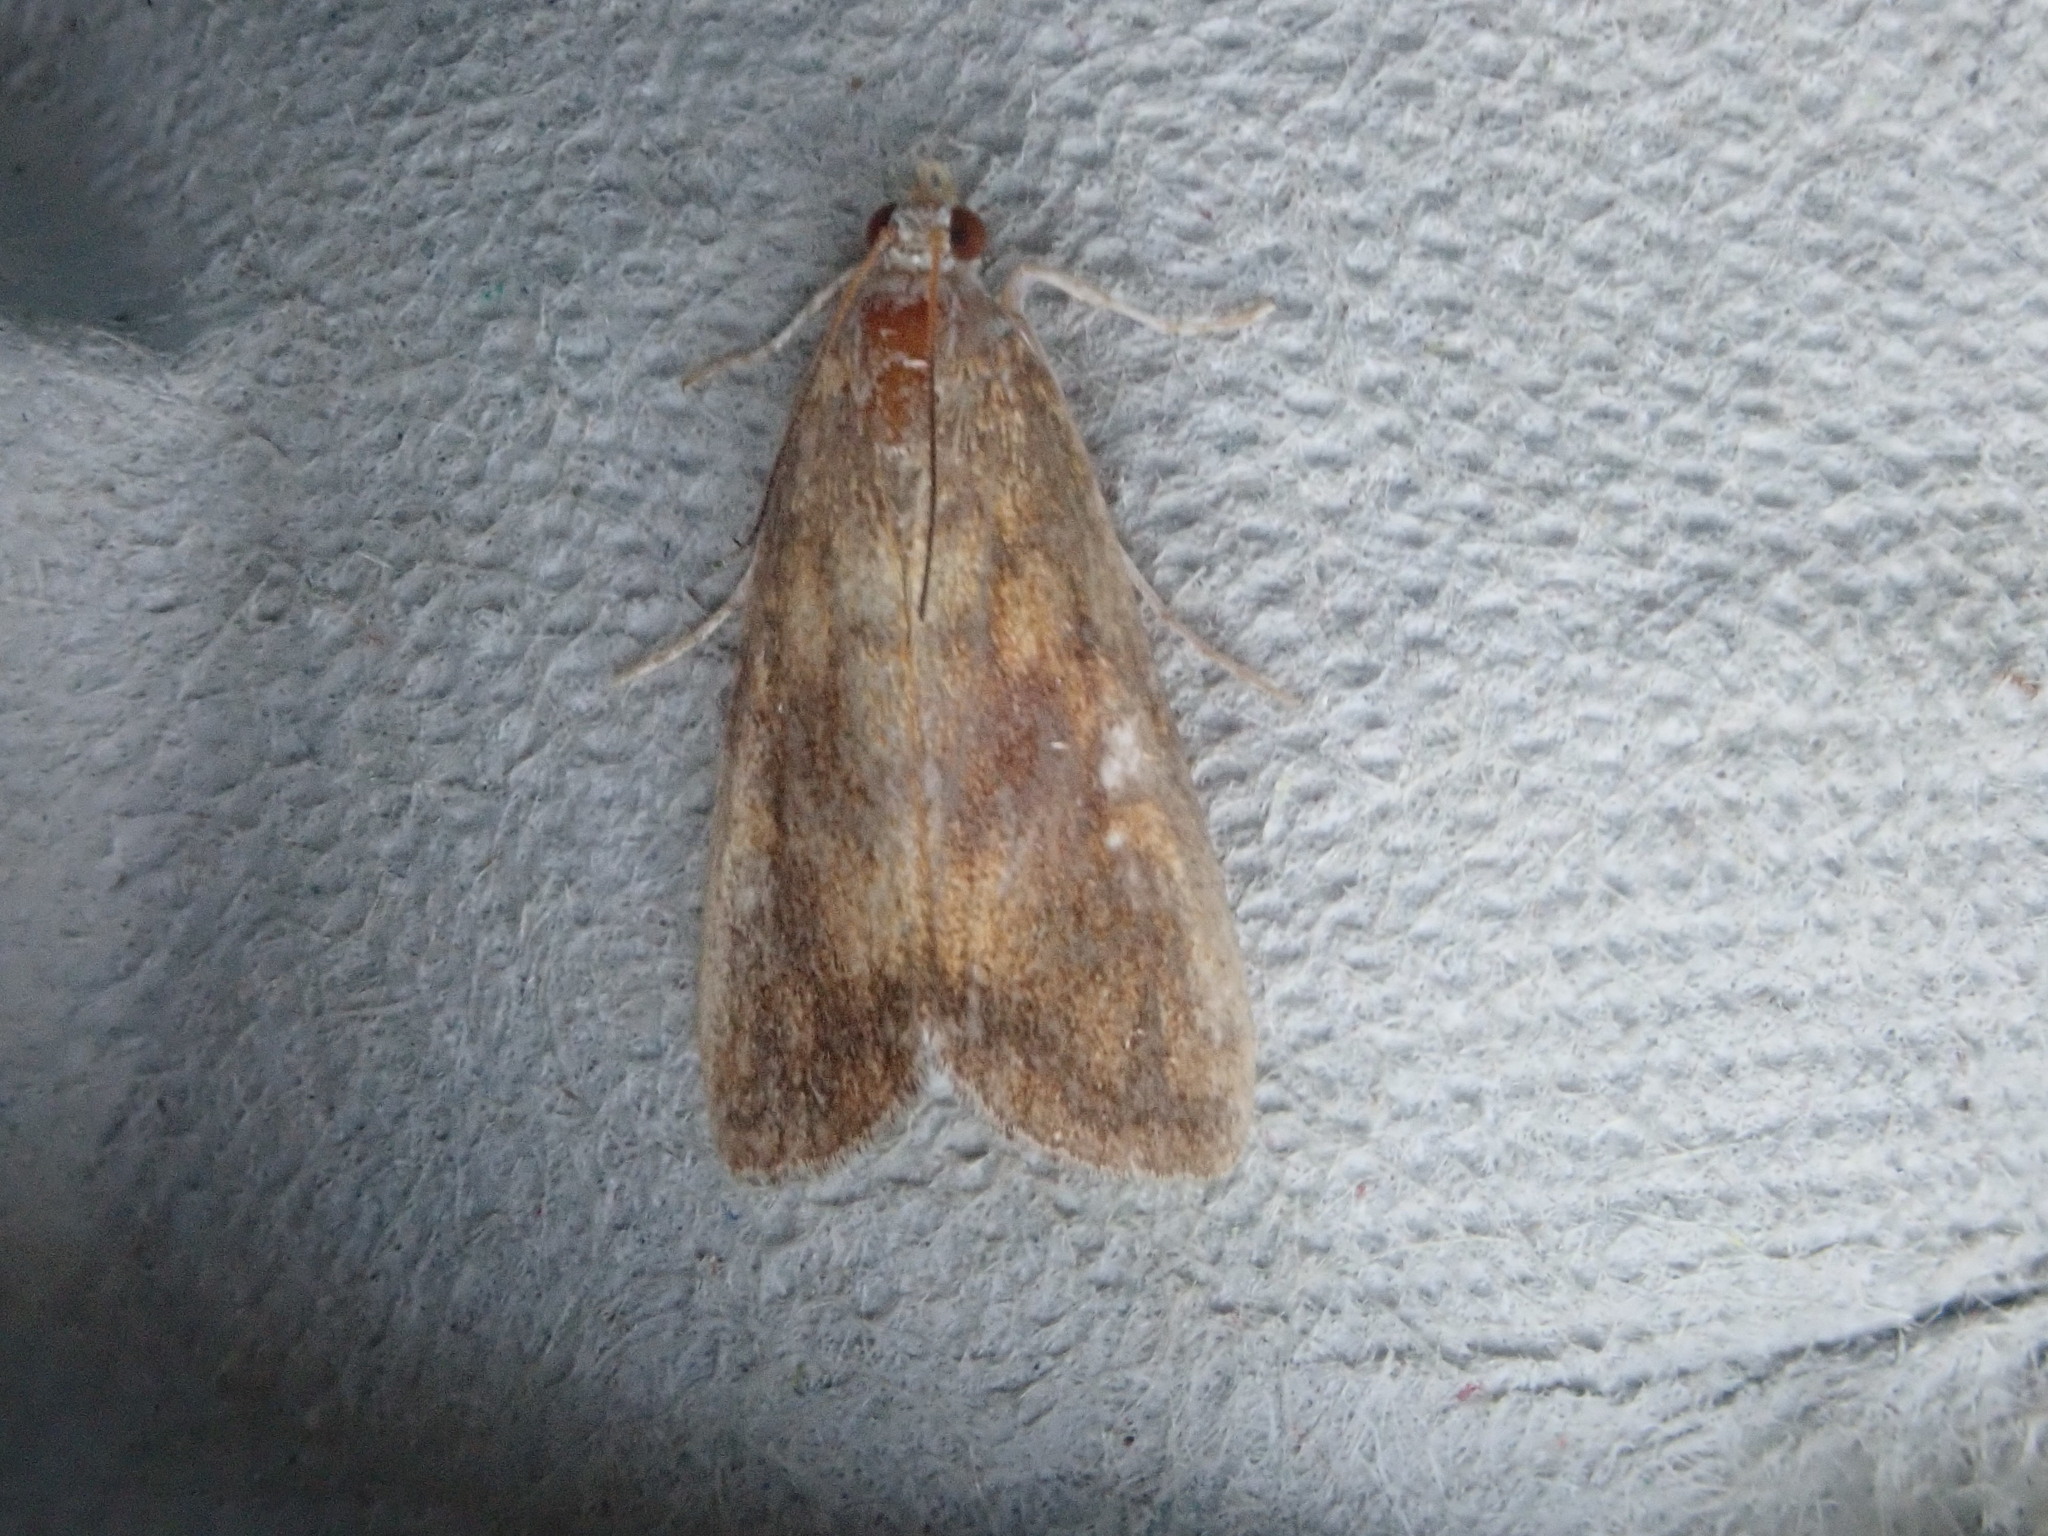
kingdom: Animalia
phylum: Arthropoda
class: Insecta
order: Lepidoptera
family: Crambidae
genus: Elophila
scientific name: Elophila gyralis
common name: Waterlily borer moth
